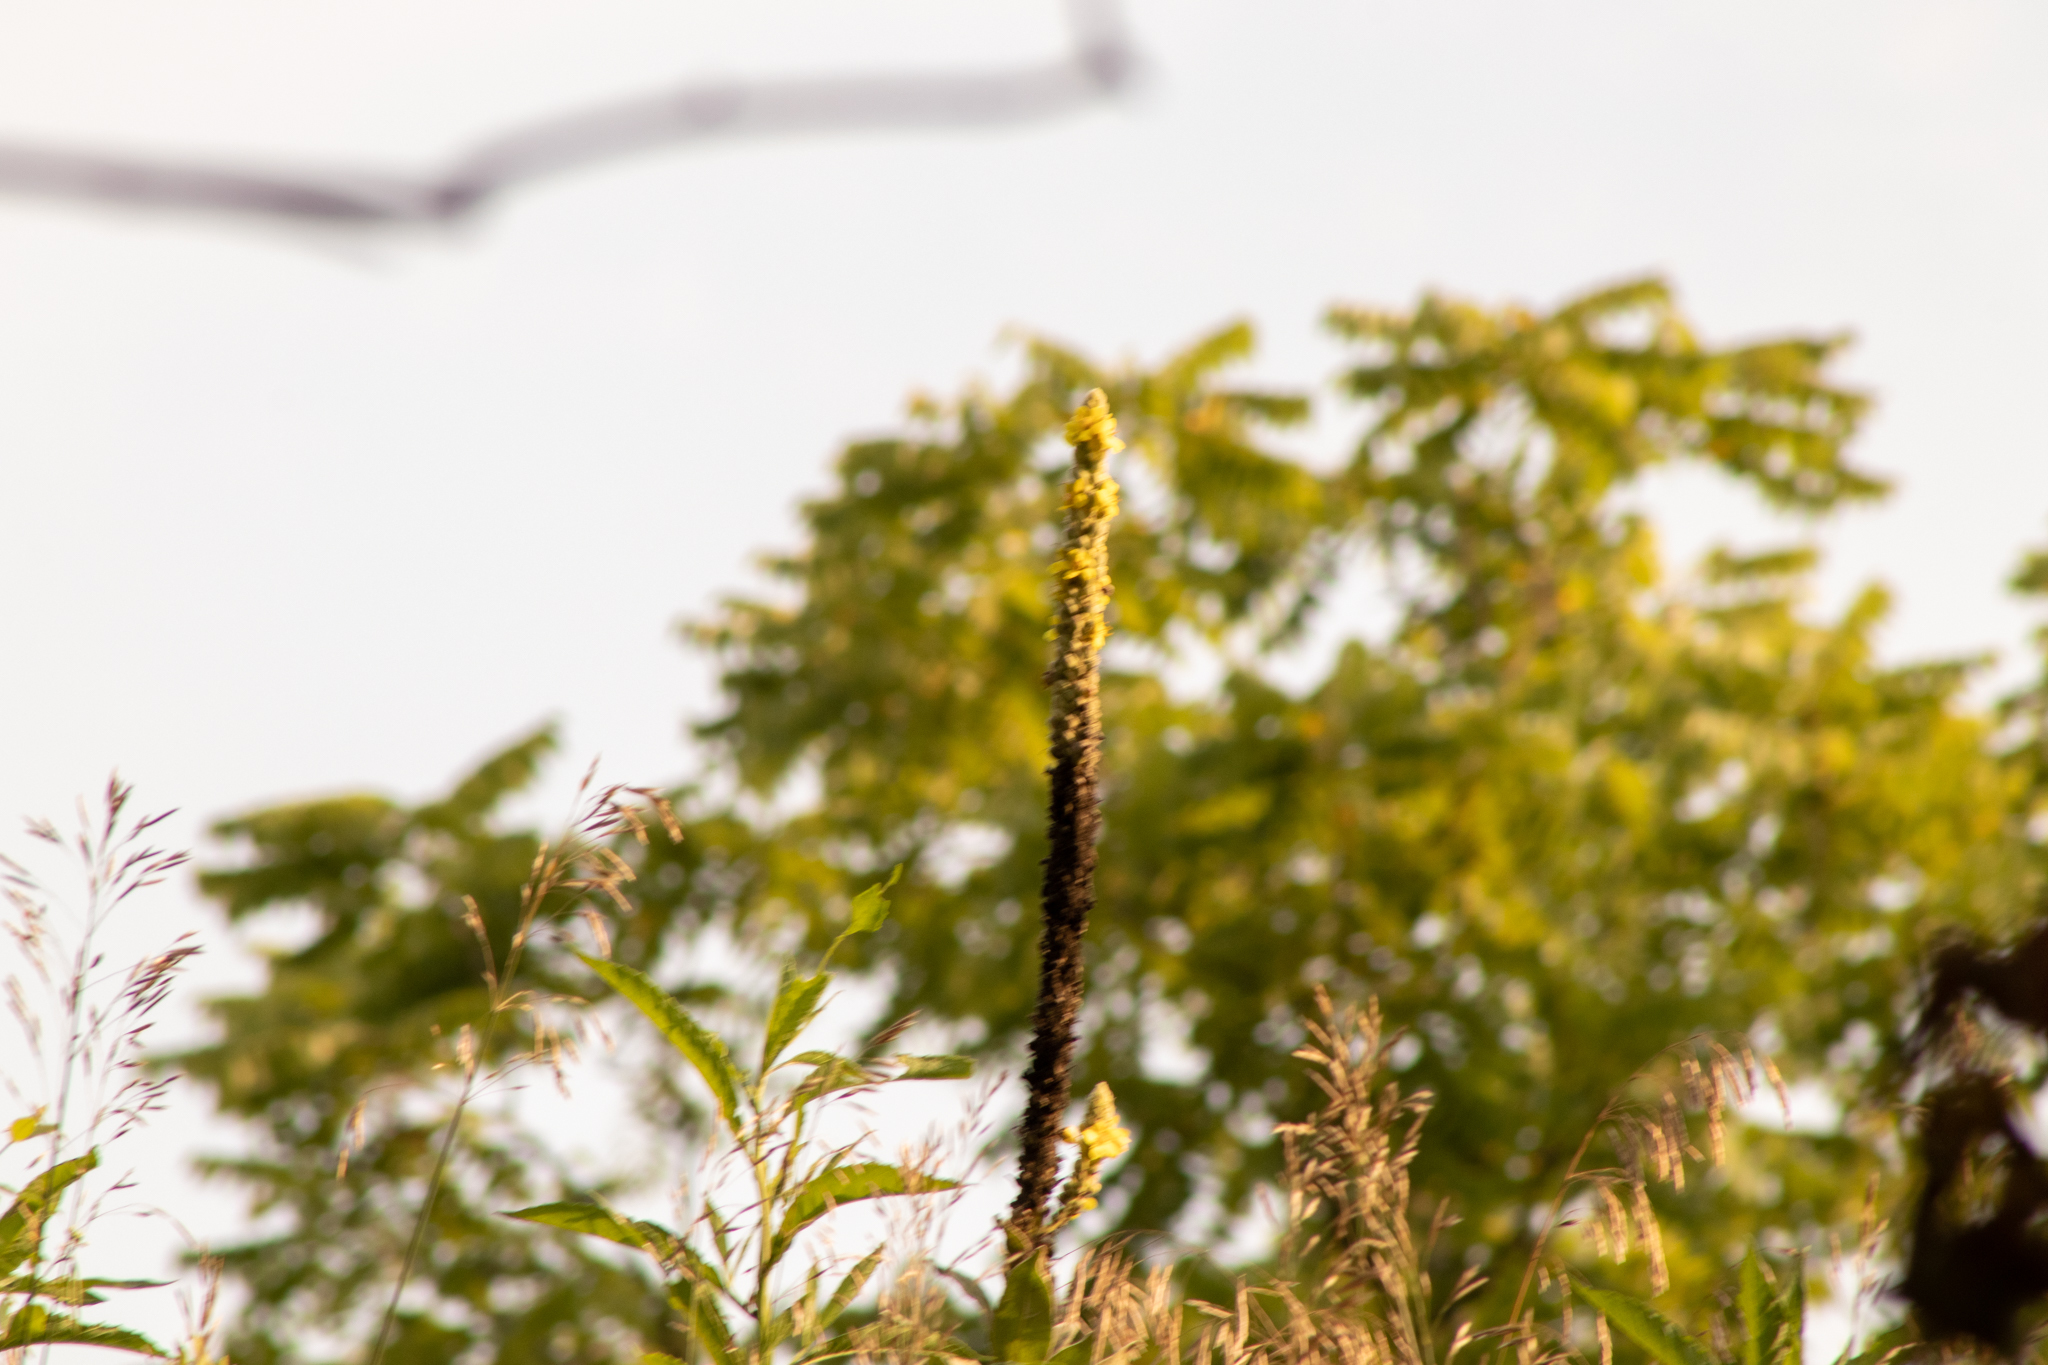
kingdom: Plantae
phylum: Tracheophyta
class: Magnoliopsida
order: Lamiales
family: Scrophulariaceae
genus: Verbascum
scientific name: Verbascum thapsus
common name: Common mullein
